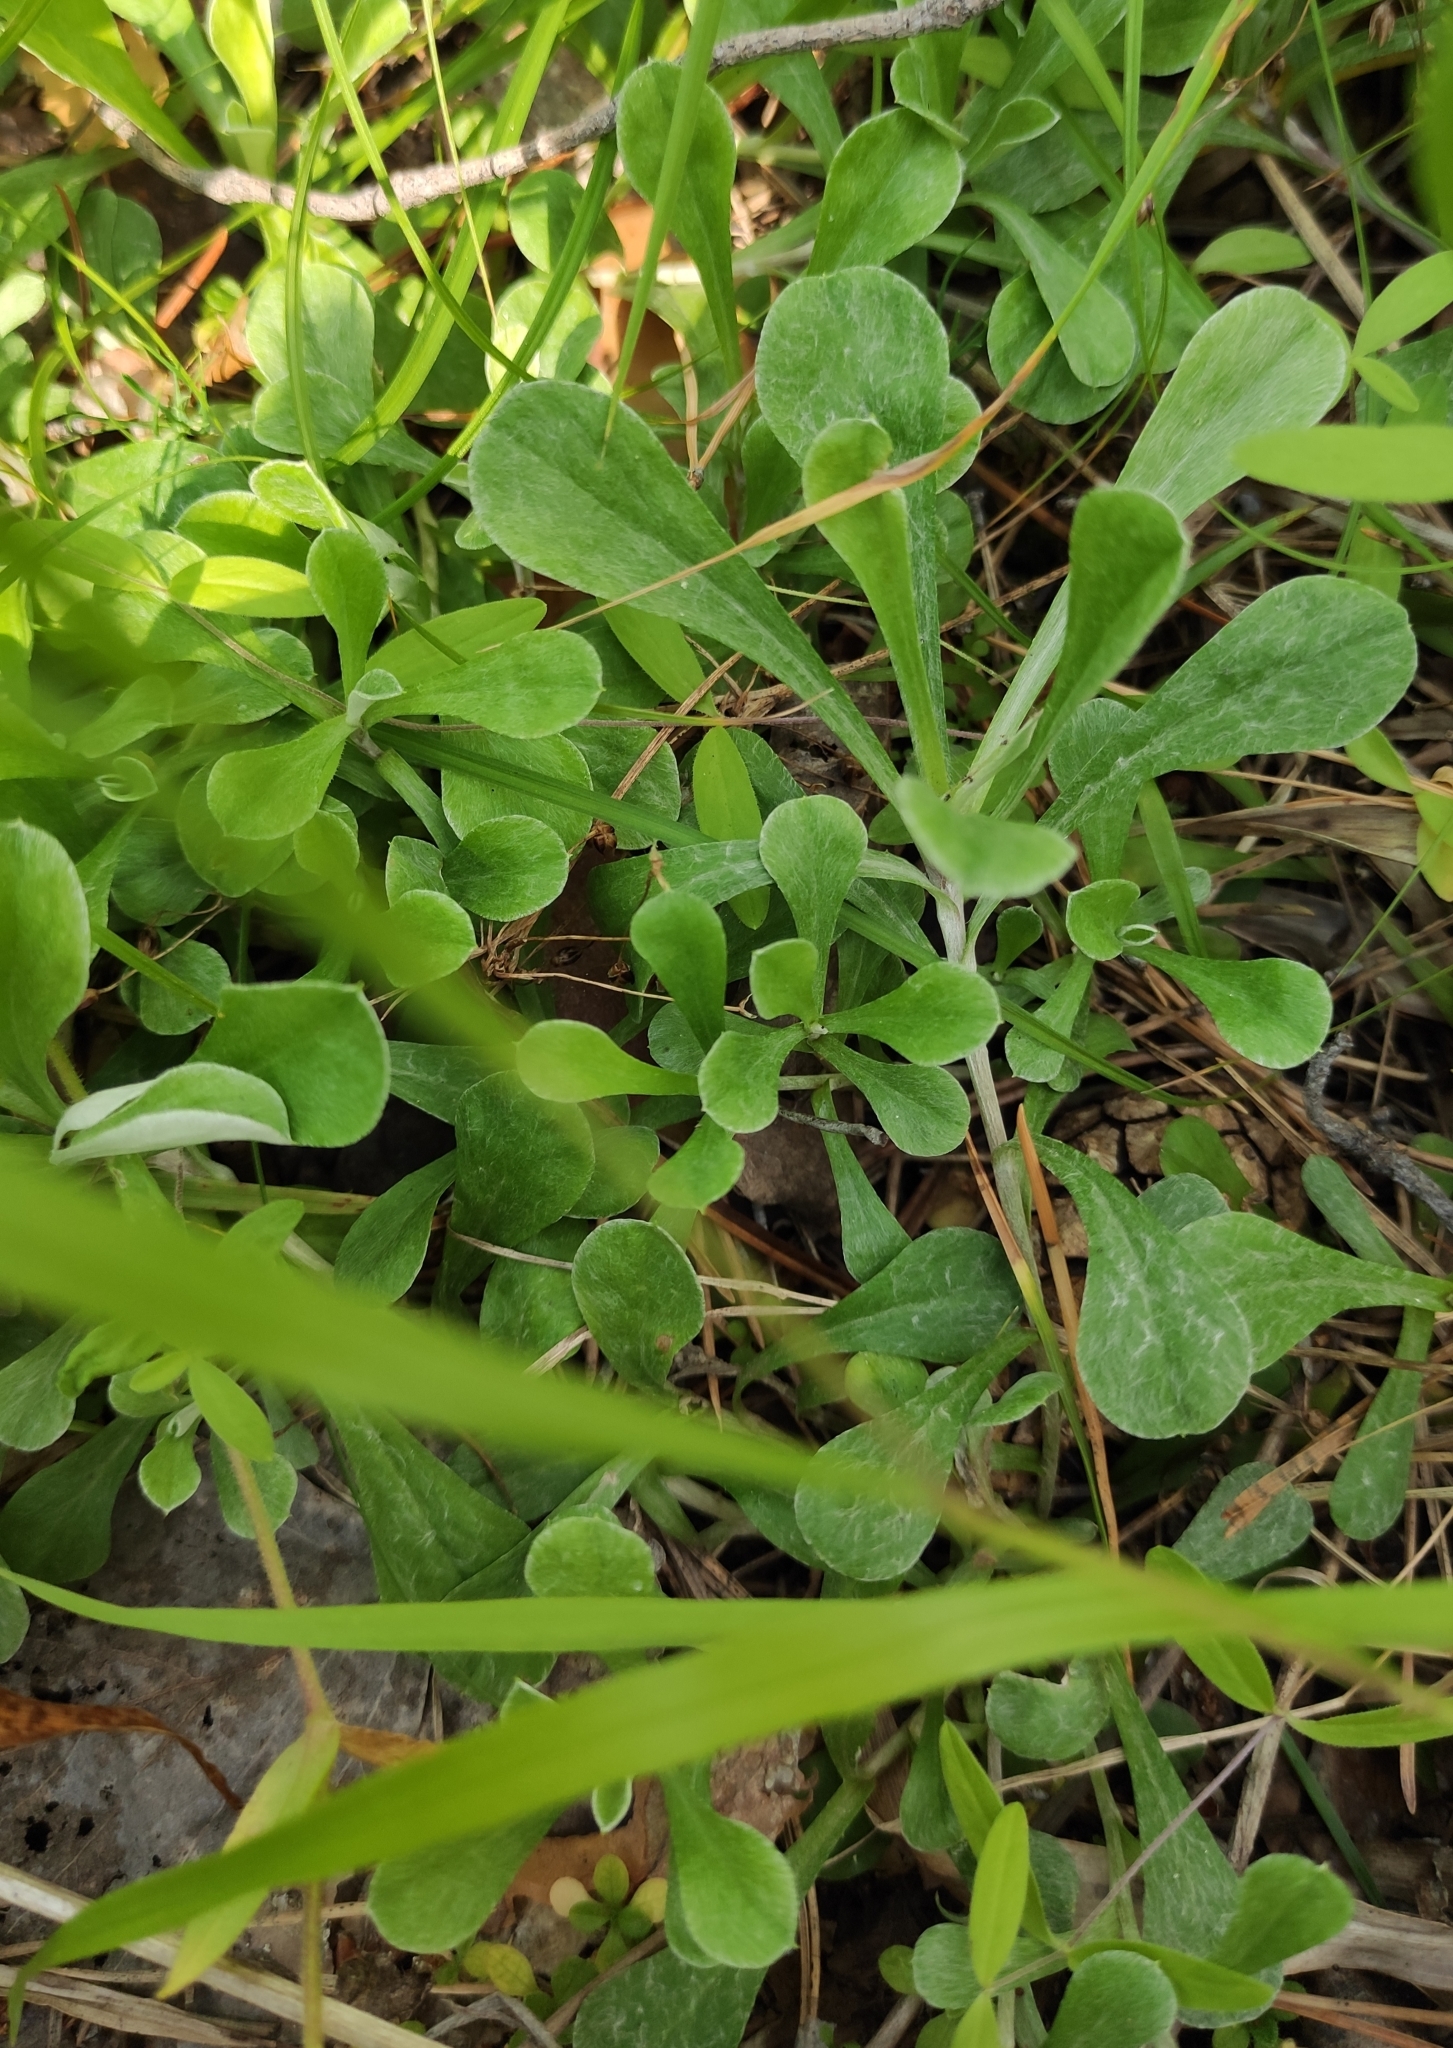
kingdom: Plantae
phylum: Tracheophyta
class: Magnoliopsida
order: Asterales
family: Asteraceae
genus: Antennaria
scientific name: Antennaria dioica
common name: Mountain everlasting
